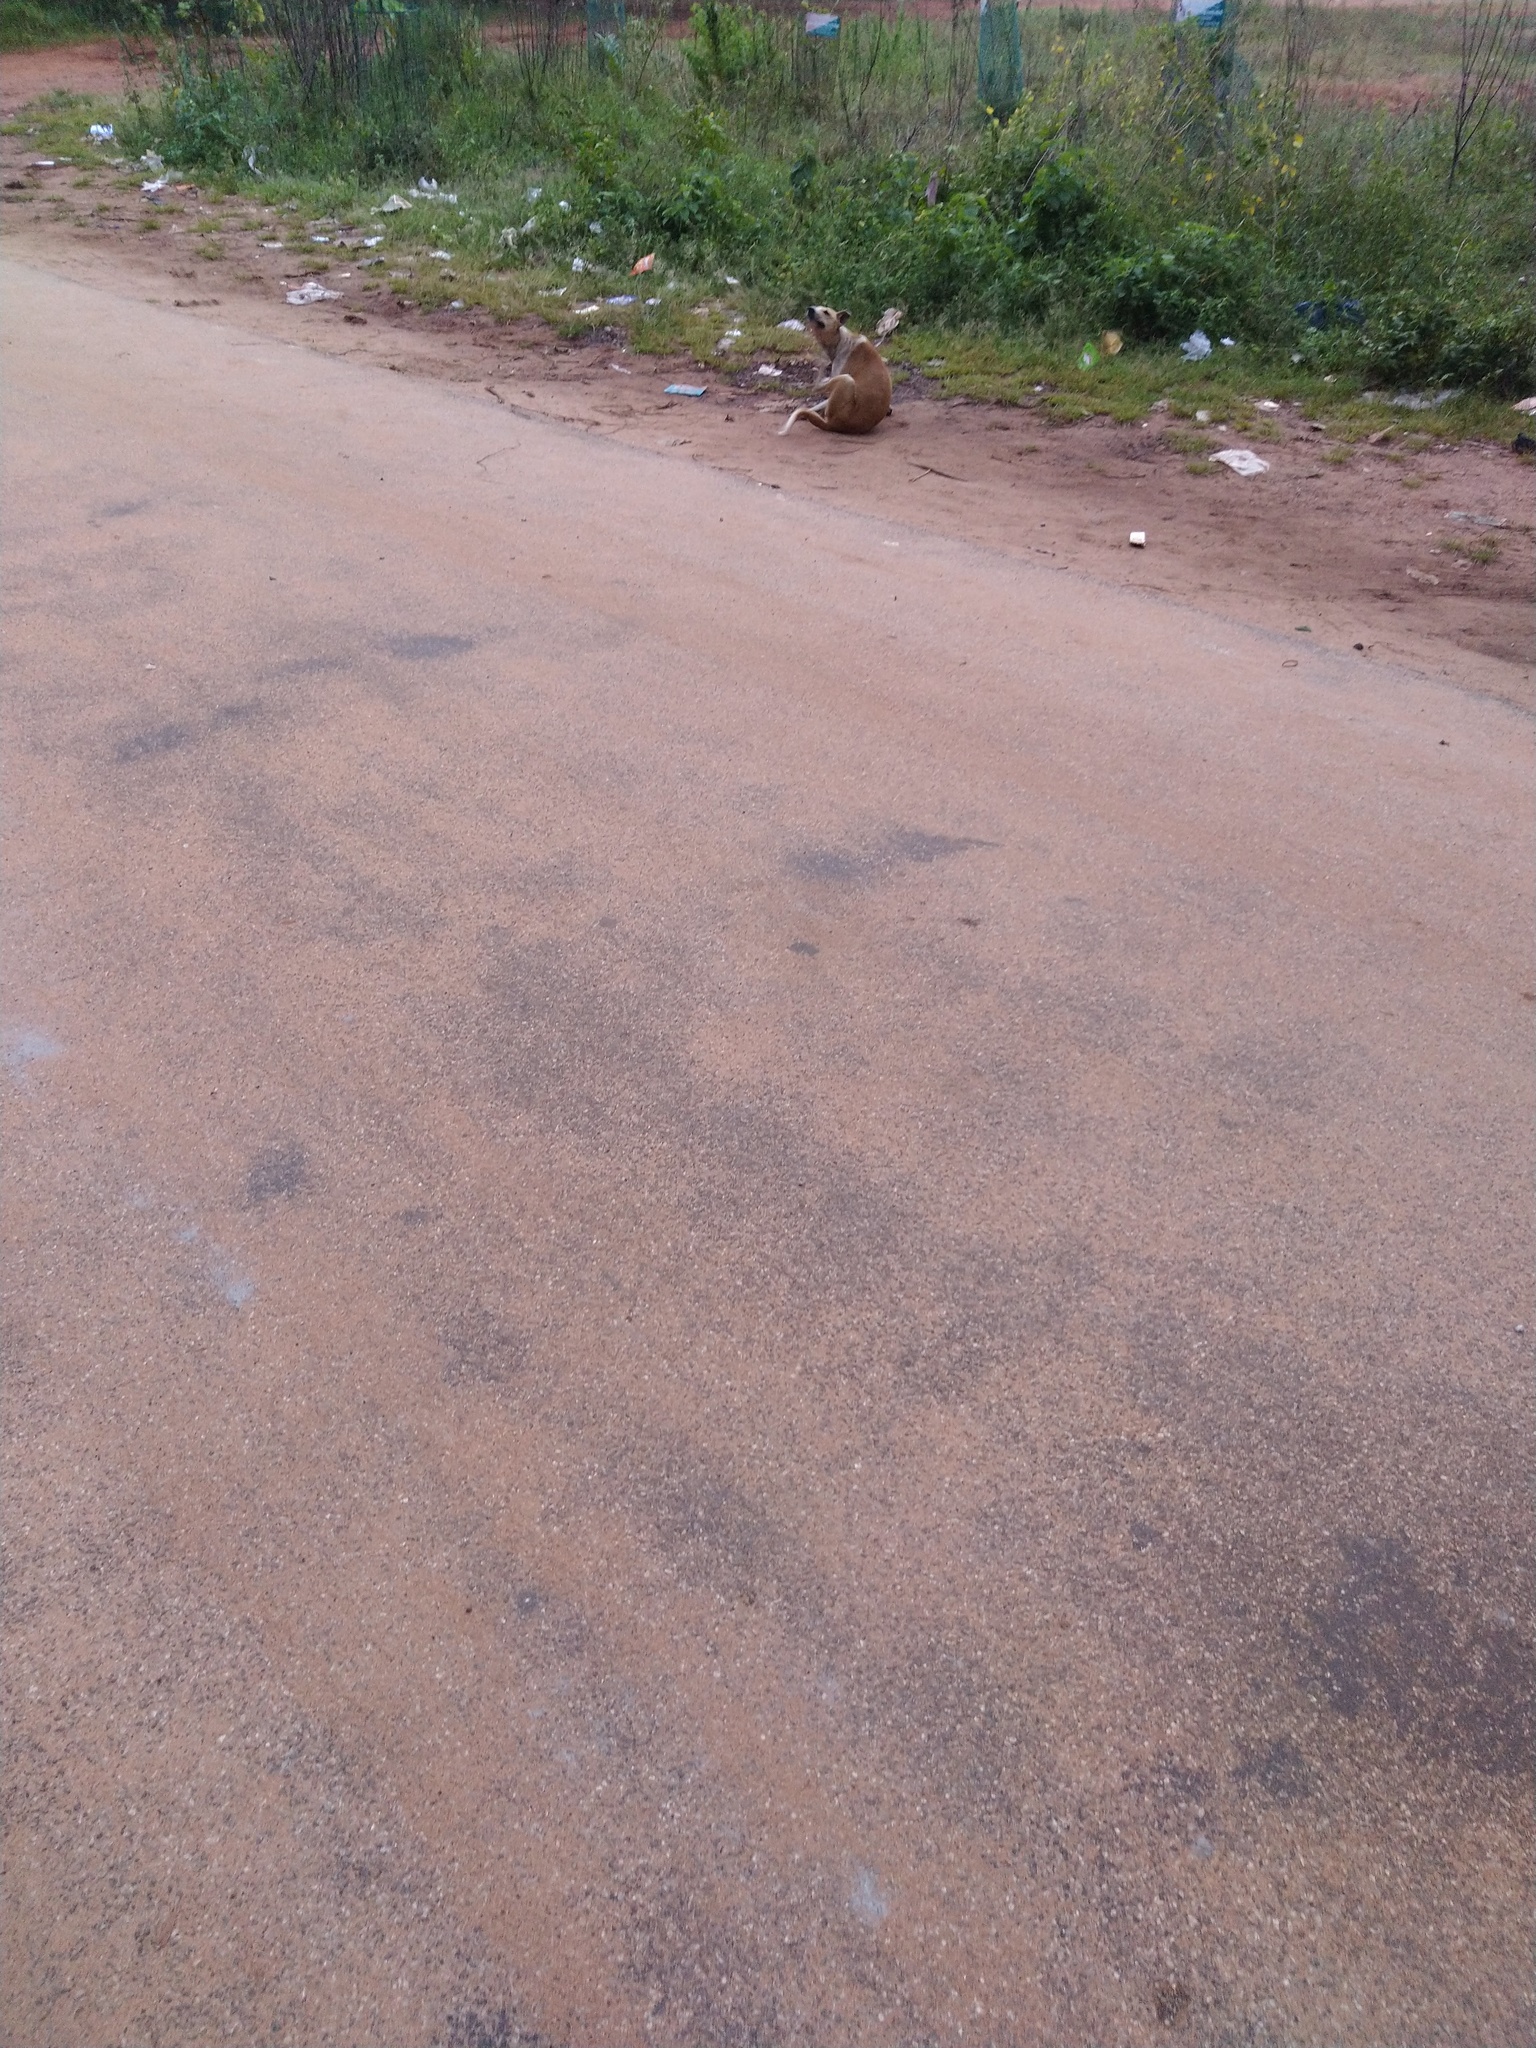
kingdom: Animalia
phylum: Chordata
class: Mammalia
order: Carnivora
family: Canidae
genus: Canis
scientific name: Canis lupus
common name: Gray wolf
